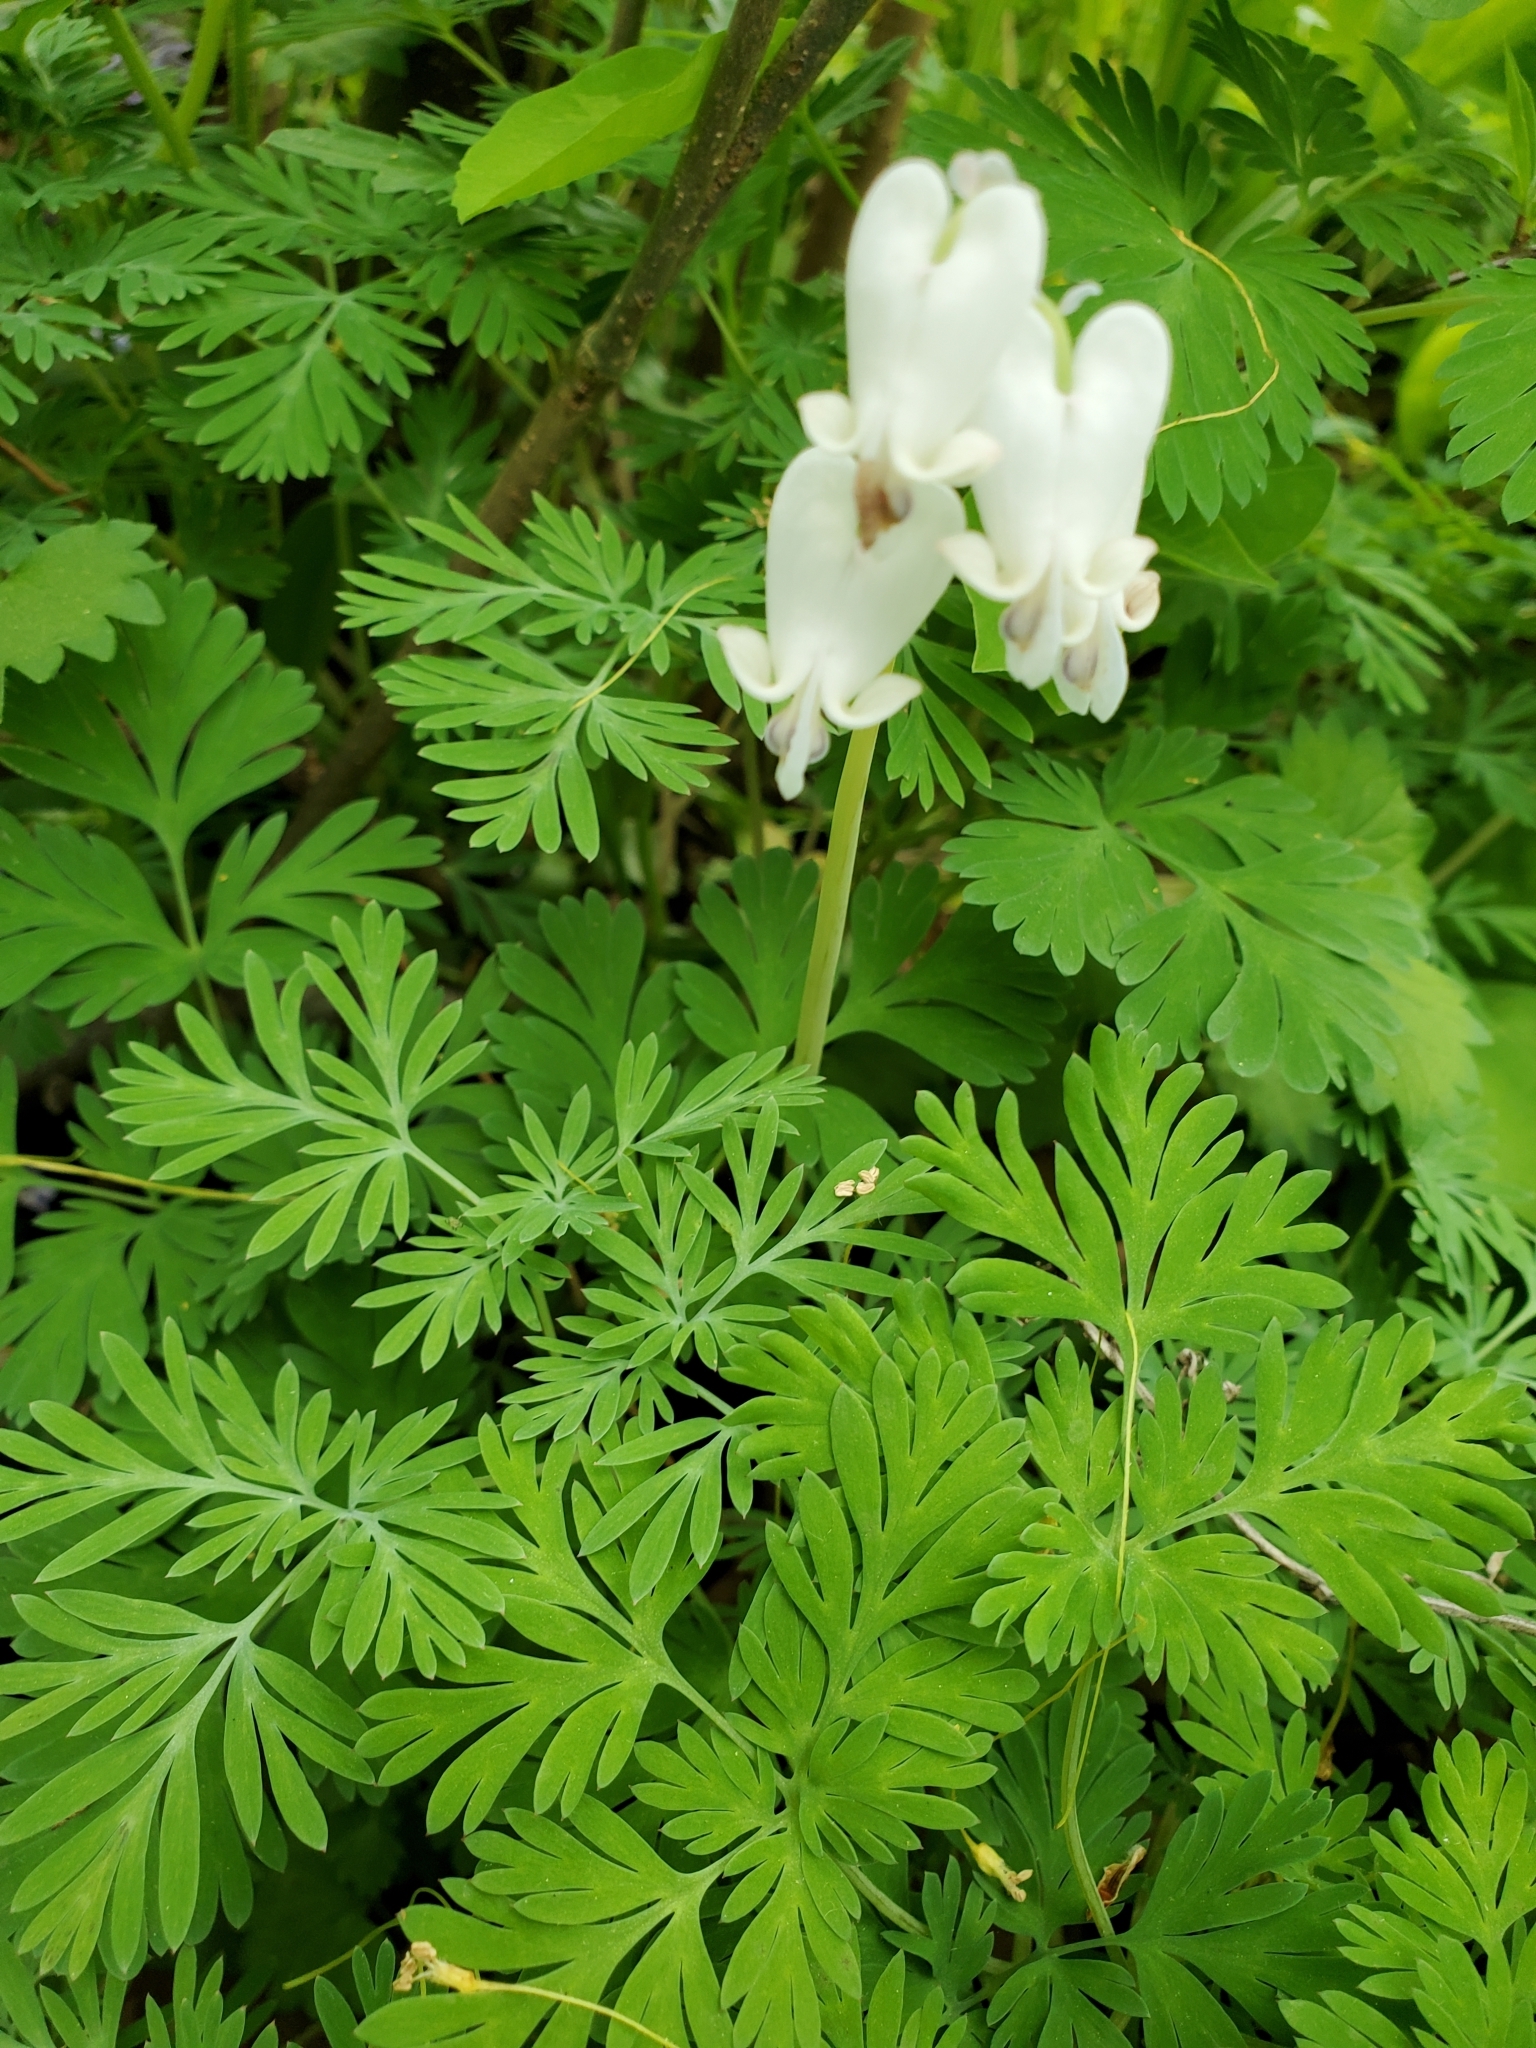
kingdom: Plantae
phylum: Tracheophyta
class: Magnoliopsida
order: Ranunculales
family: Papaveraceae
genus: Dicentra
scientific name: Dicentra canadensis
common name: Squirrel-corn
